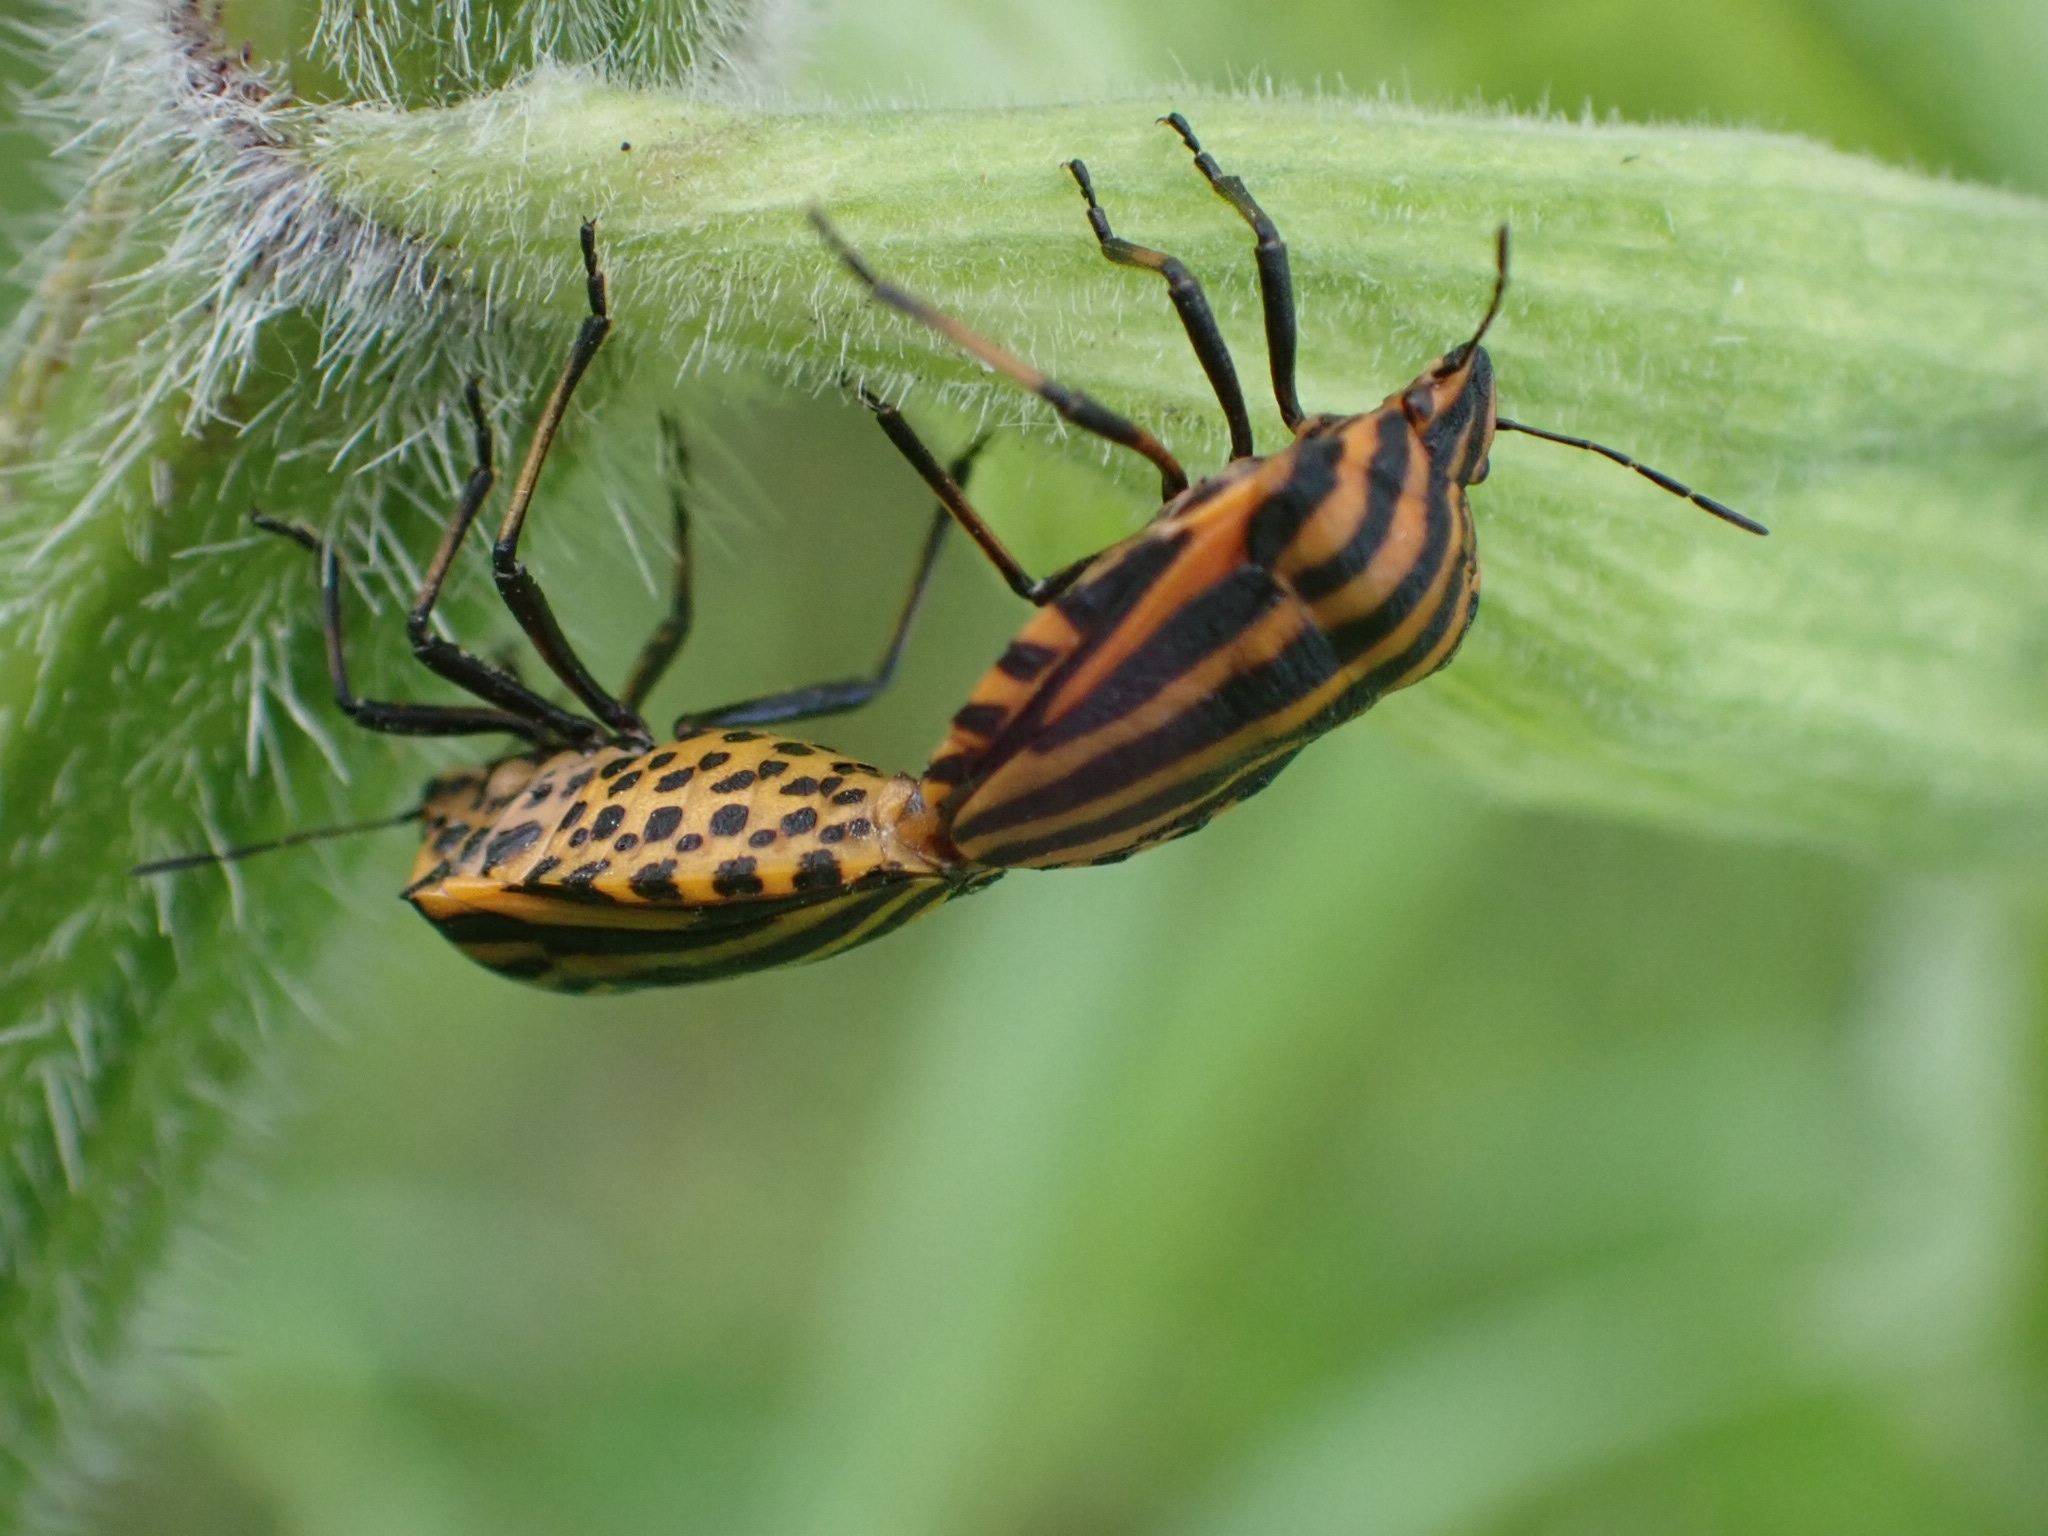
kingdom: Animalia
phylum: Arthropoda
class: Insecta
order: Hemiptera
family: Pentatomidae
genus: Graphosoma
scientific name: Graphosoma italicum
